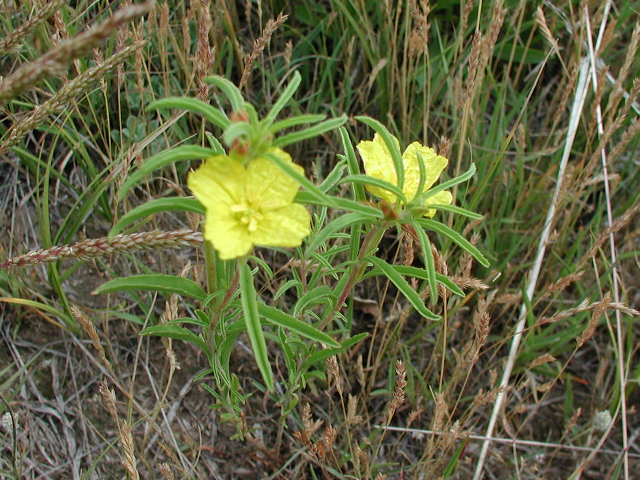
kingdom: Plantae
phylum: Tracheophyta
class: Magnoliopsida
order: Myrtales
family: Onagraceae
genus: Oenothera
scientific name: Oenothera serrulata
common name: Half-shrub calylophus
